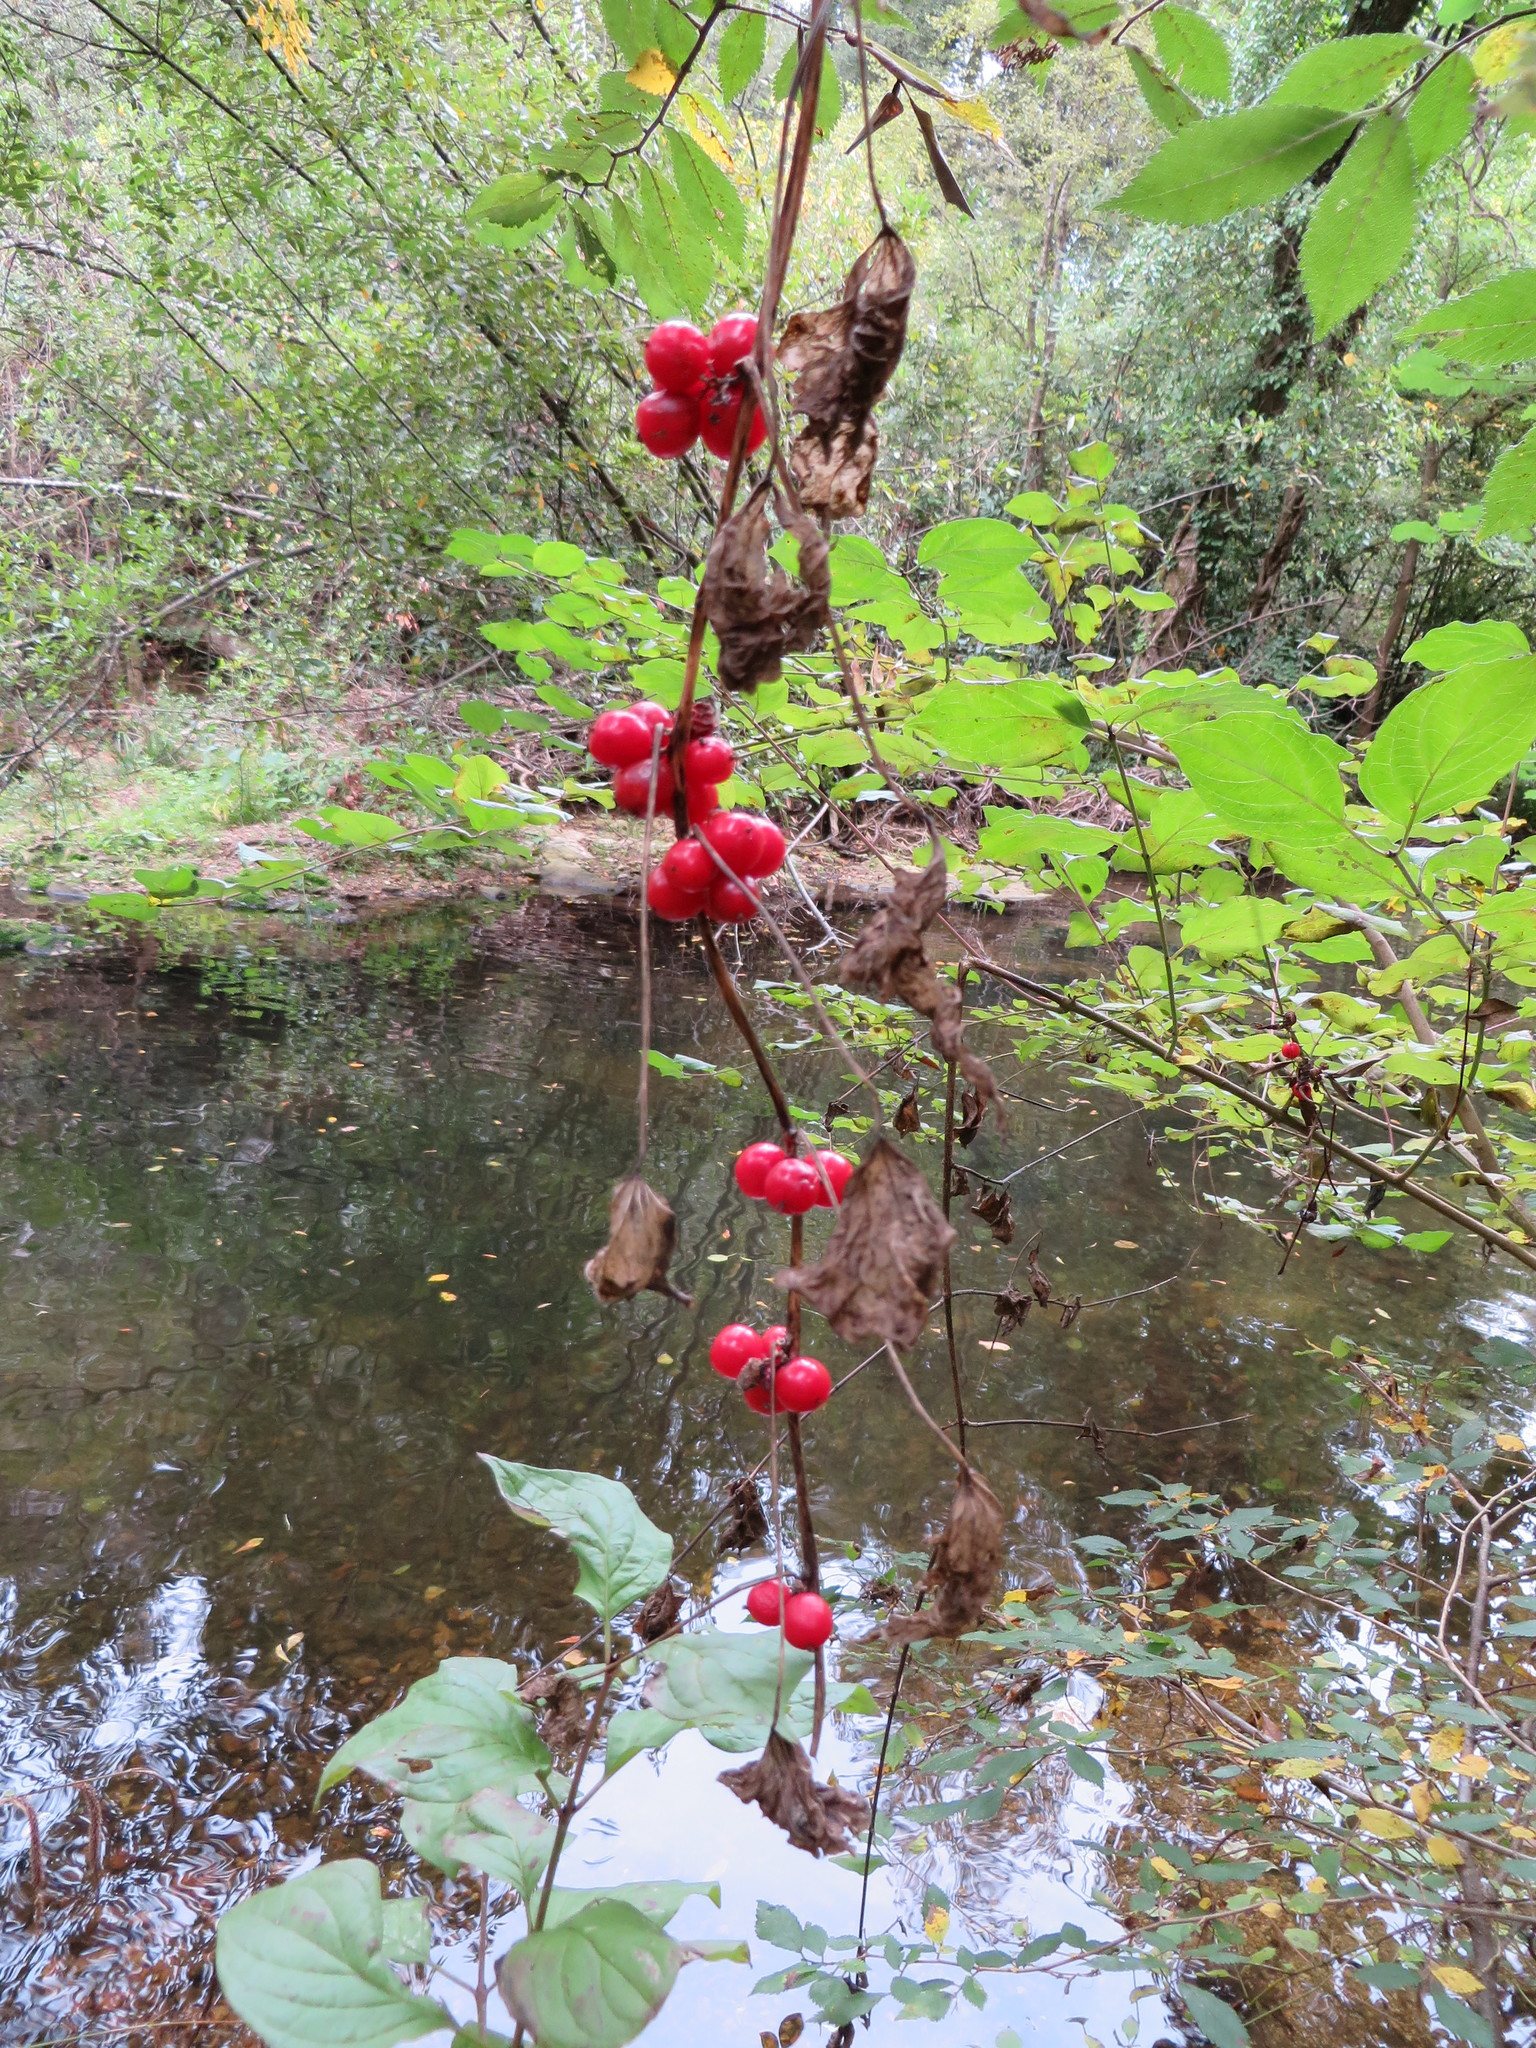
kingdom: Plantae
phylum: Tracheophyta
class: Liliopsida
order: Dioscoreales
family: Dioscoreaceae
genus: Dioscorea
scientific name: Dioscorea communis
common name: Black-bindweed
